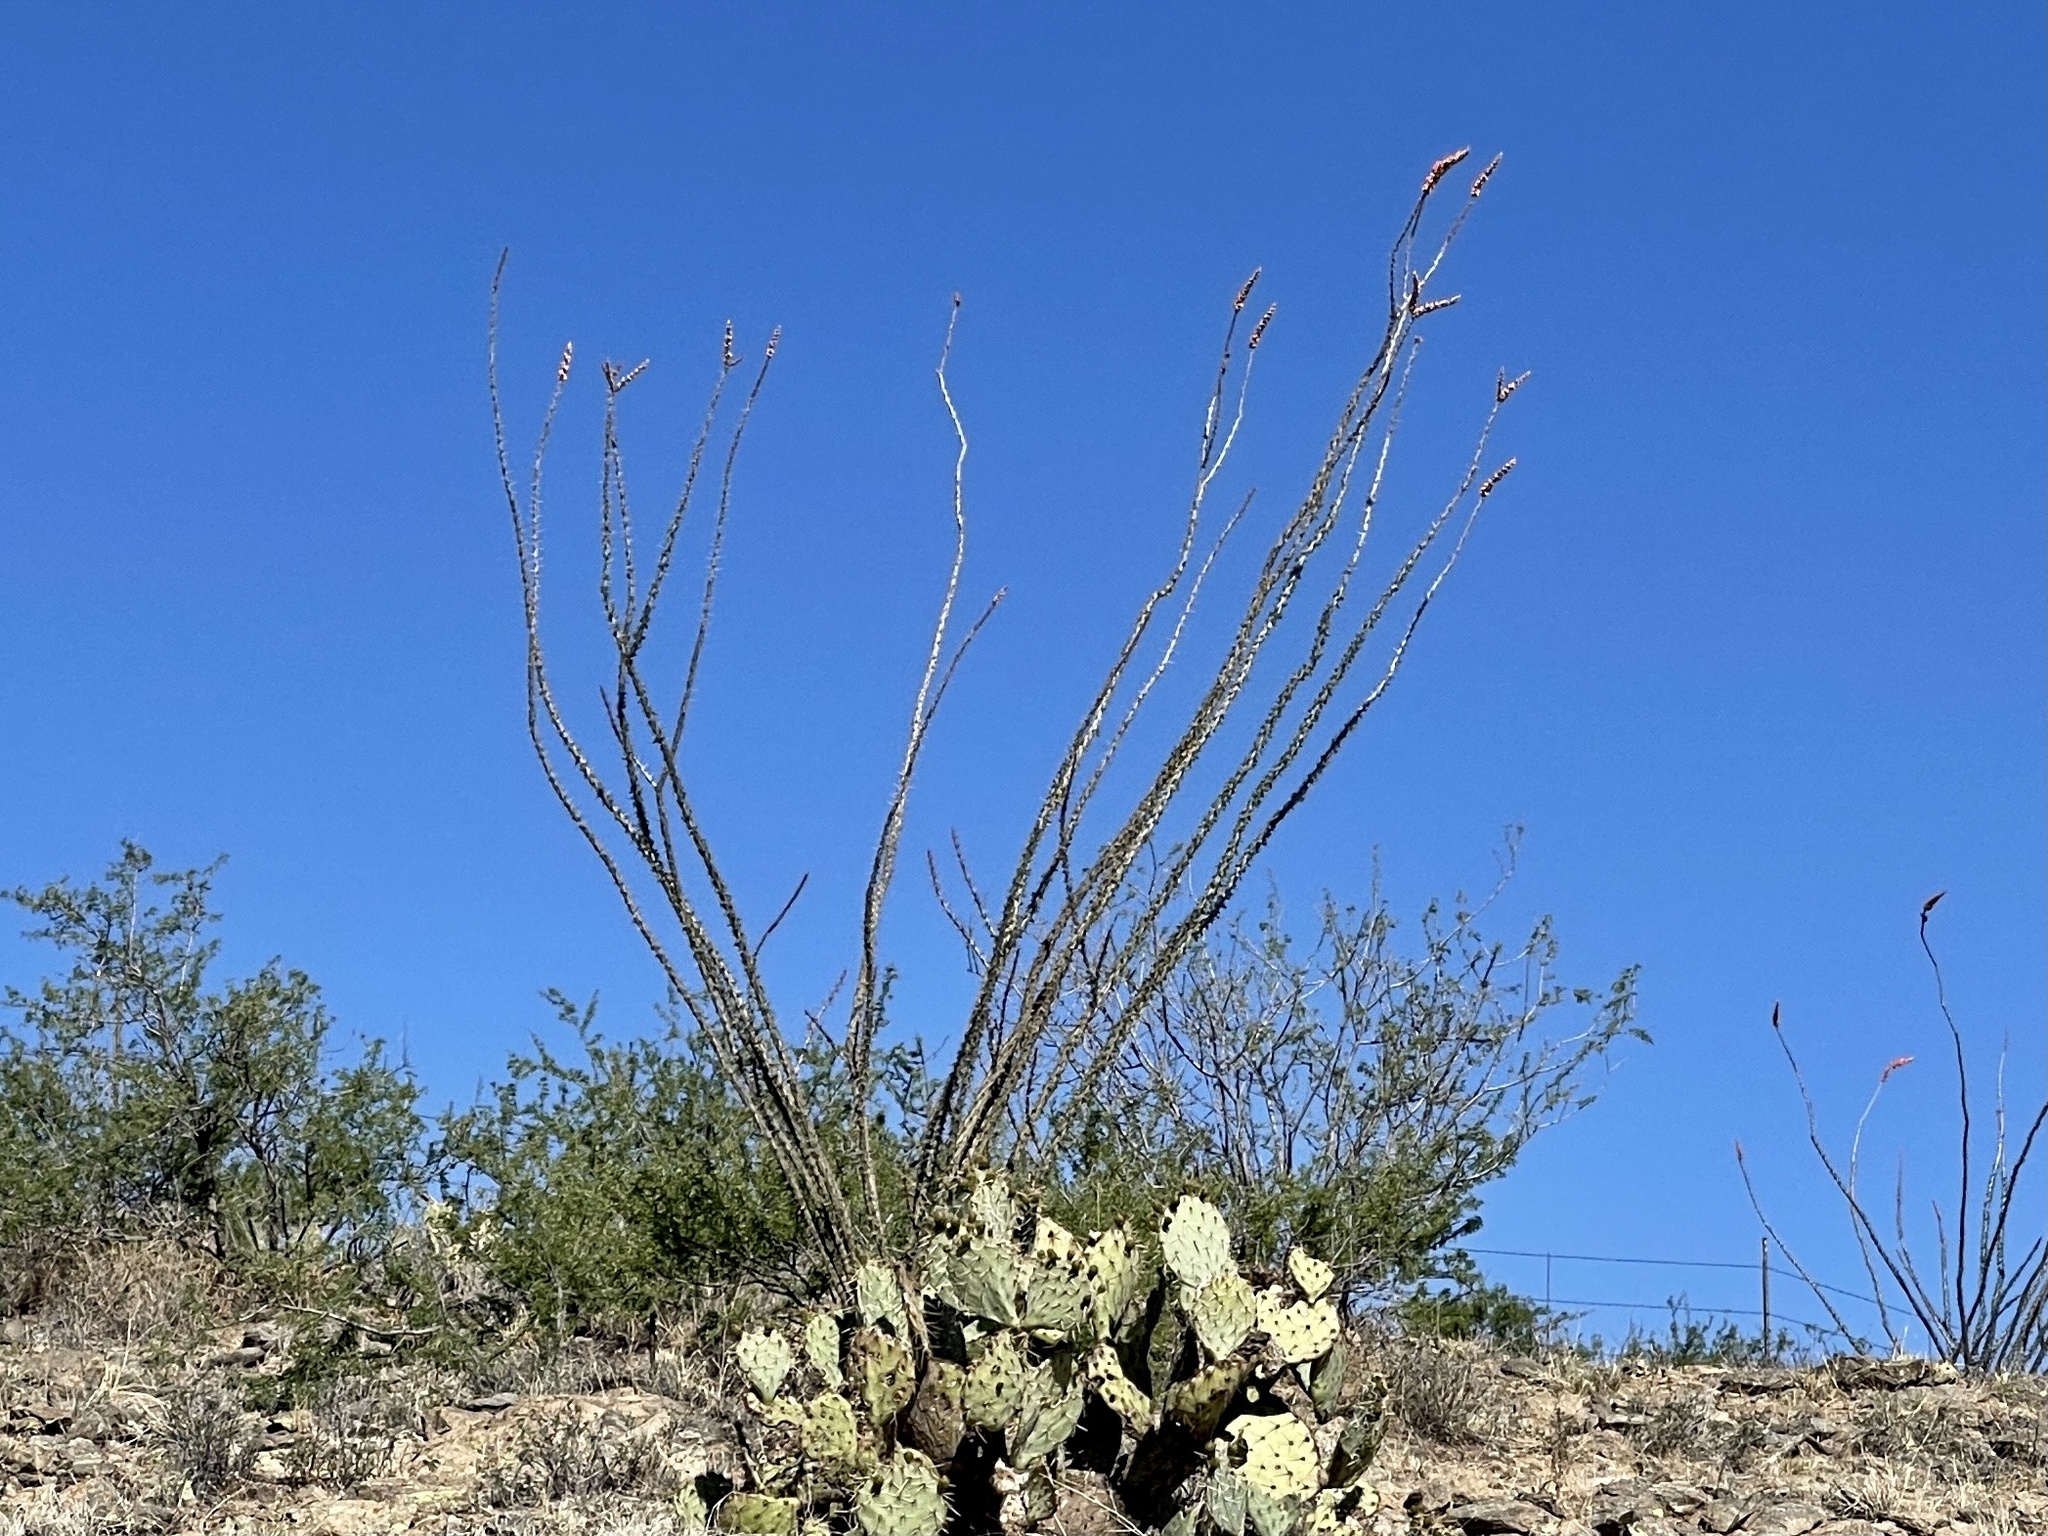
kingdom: Plantae
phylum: Tracheophyta
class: Magnoliopsida
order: Ericales
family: Fouquieriaceae
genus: Fouquieria
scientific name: Fouquieria splendens
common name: Vine-cactus
